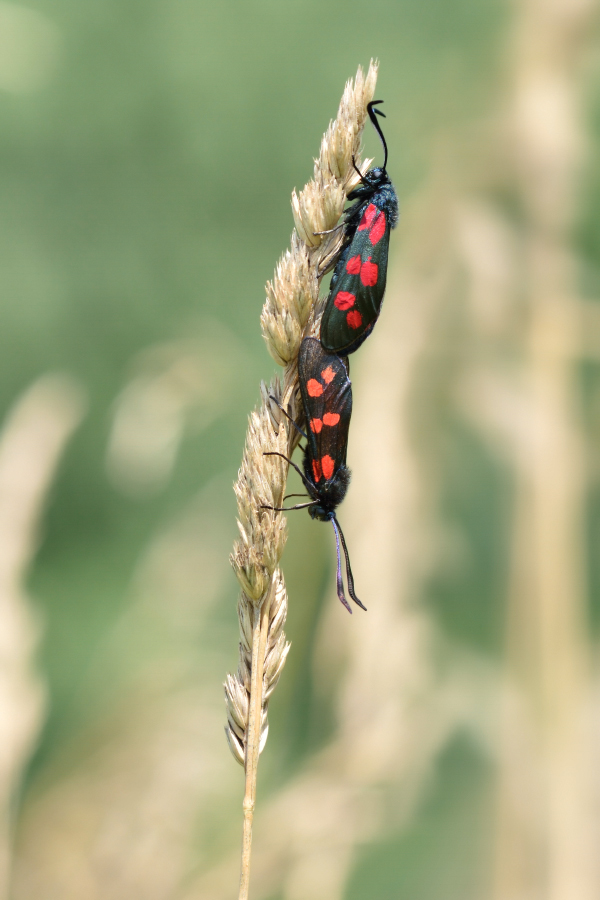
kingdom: Animalia
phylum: Arthropoda
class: Insecta
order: Lepidoptera
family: Zygaenidae
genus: Zygaena
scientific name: Zygaena filipendulae
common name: Six-spot burnet
